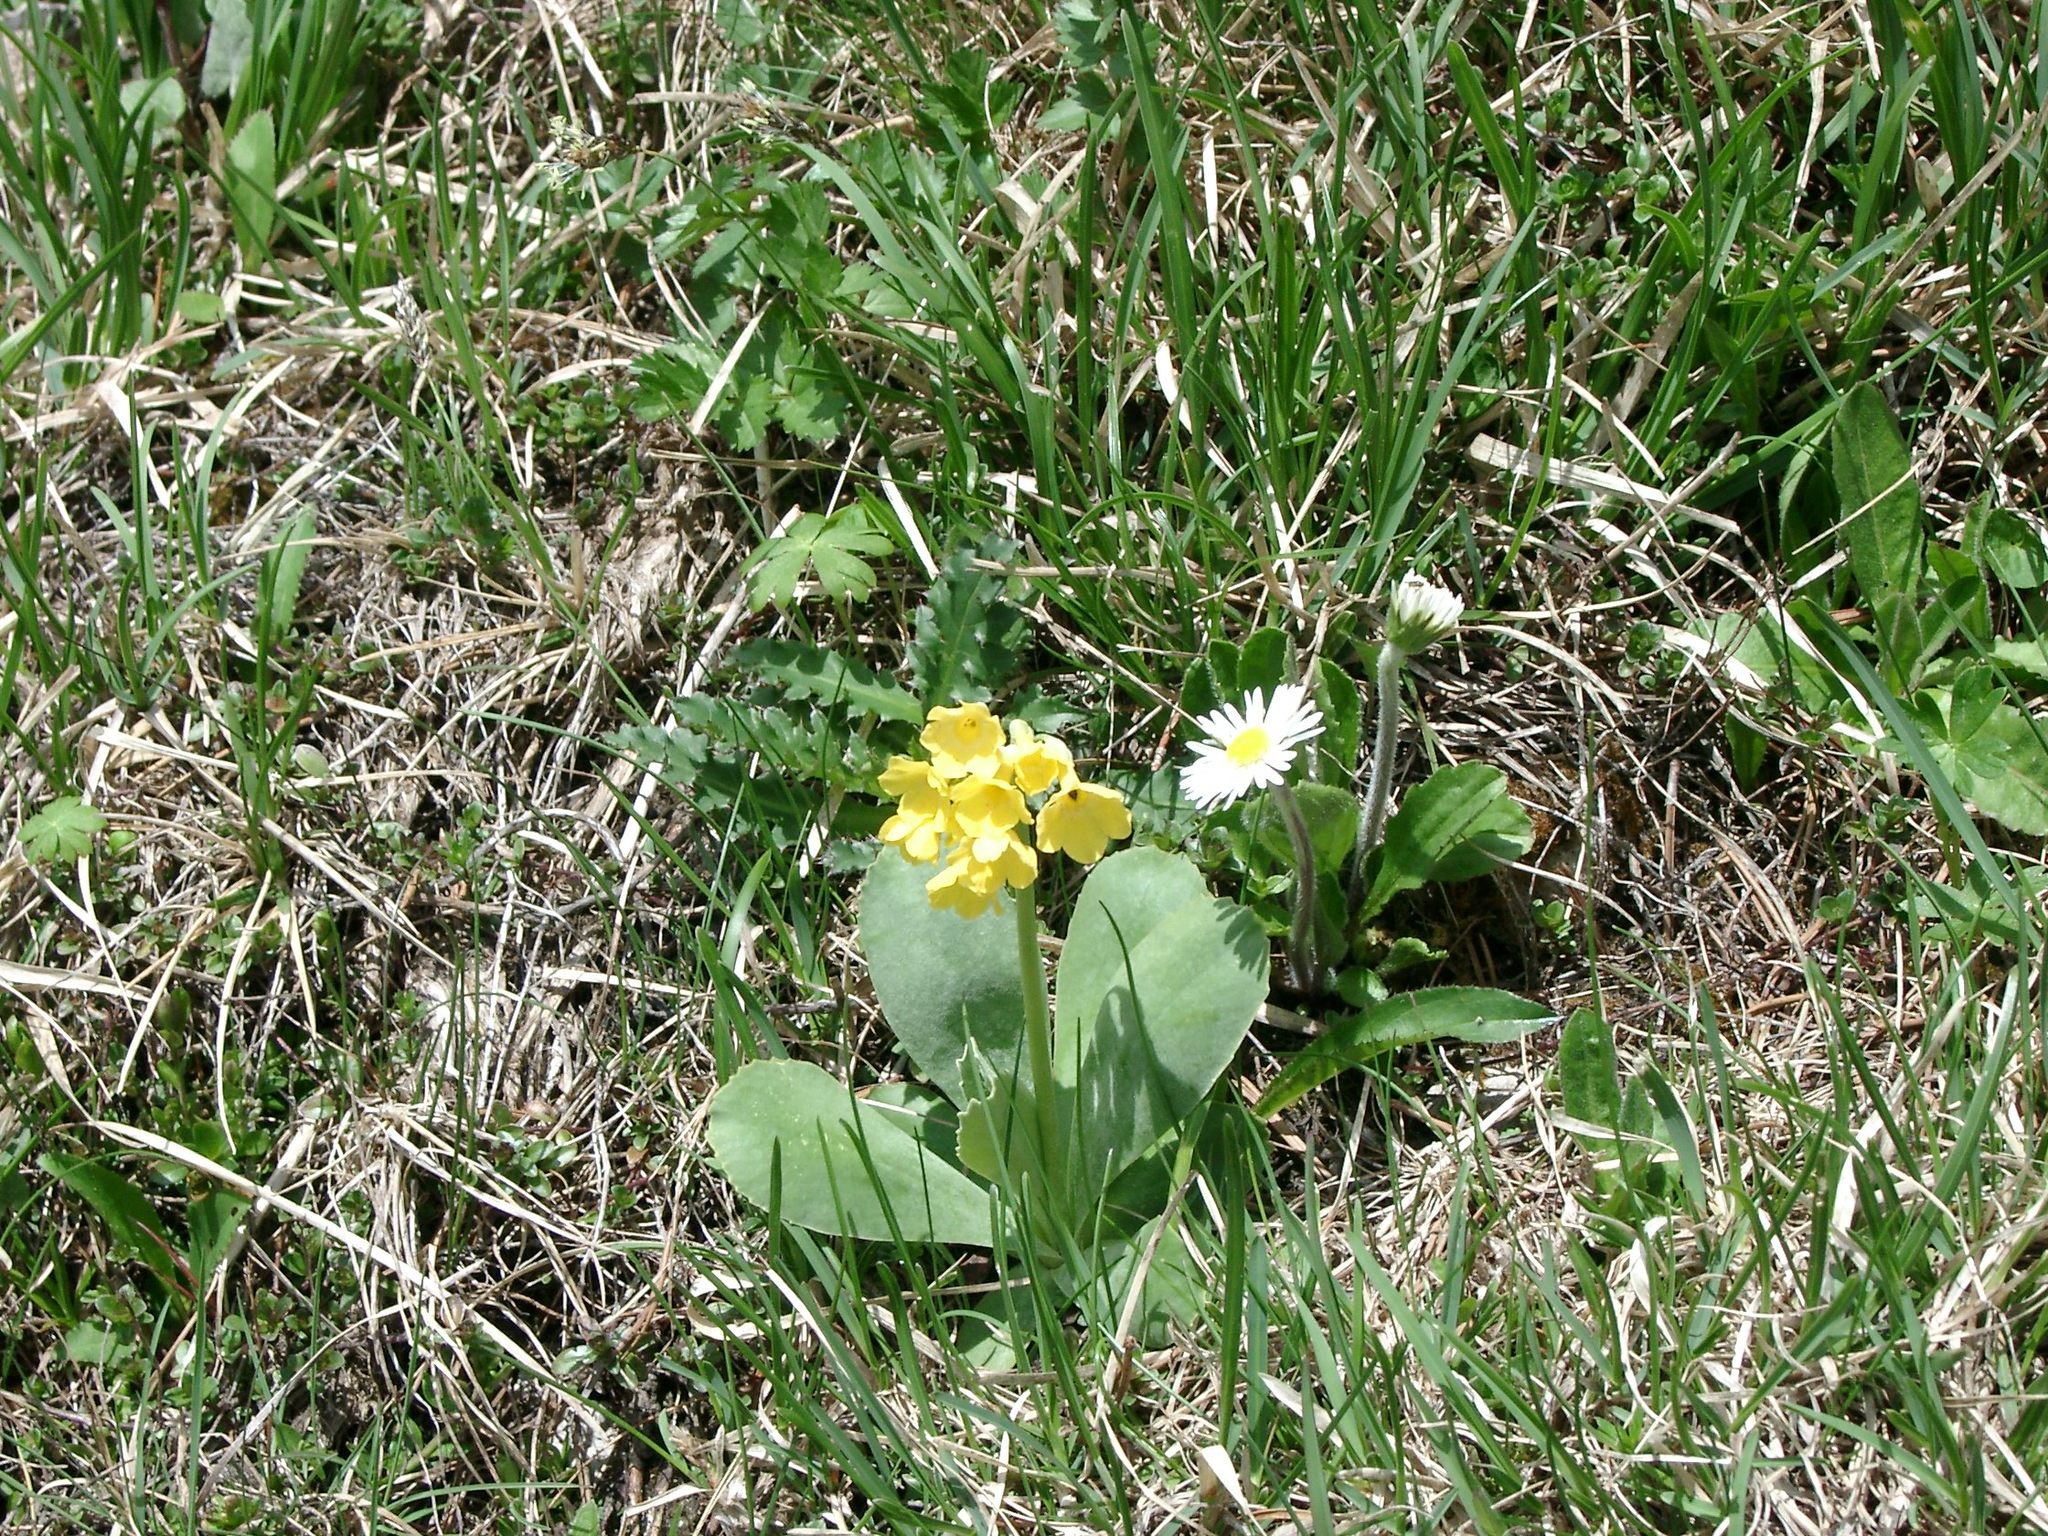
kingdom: Plantae
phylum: Tracheophyta
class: Magnoliopsida
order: Ericales
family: Primulaceae
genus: Primula
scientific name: Primula auricula
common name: Auricula
